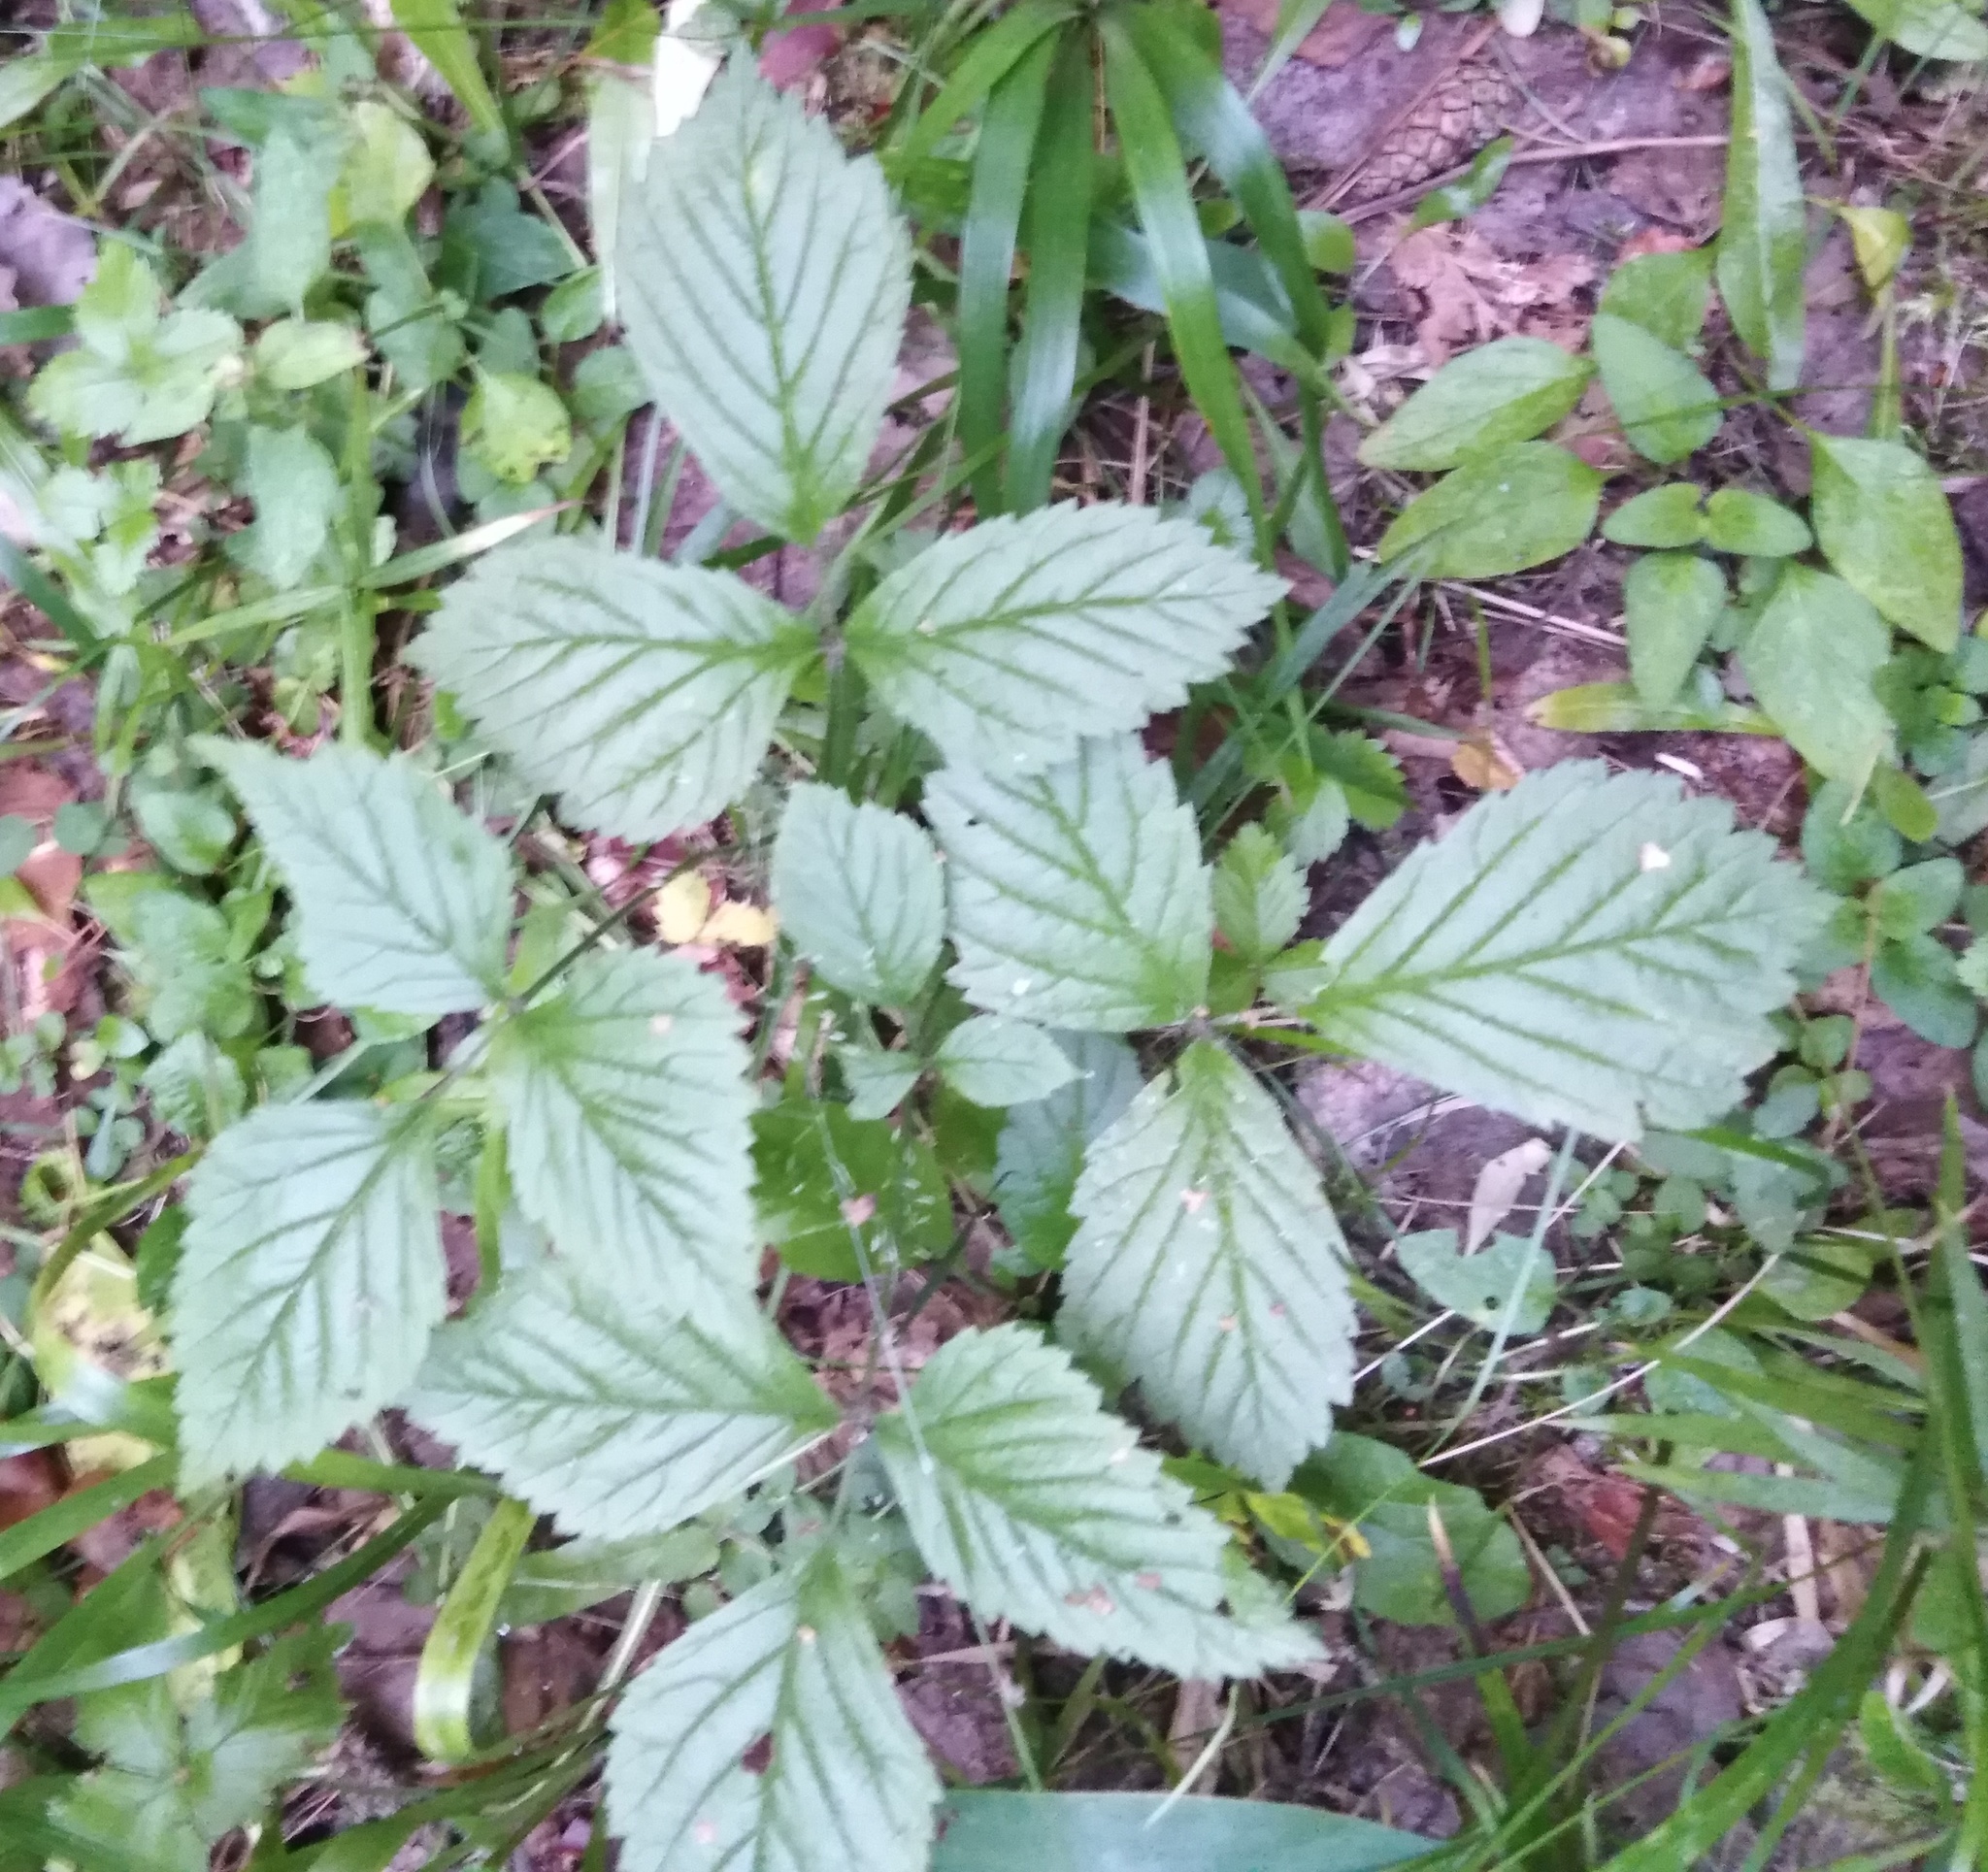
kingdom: Plantae
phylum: Tracheophyta
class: Magnoliopsida
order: Rosales
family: Rosaceae
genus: Rubus
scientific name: Rubus saxatilis
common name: Stone bramble
